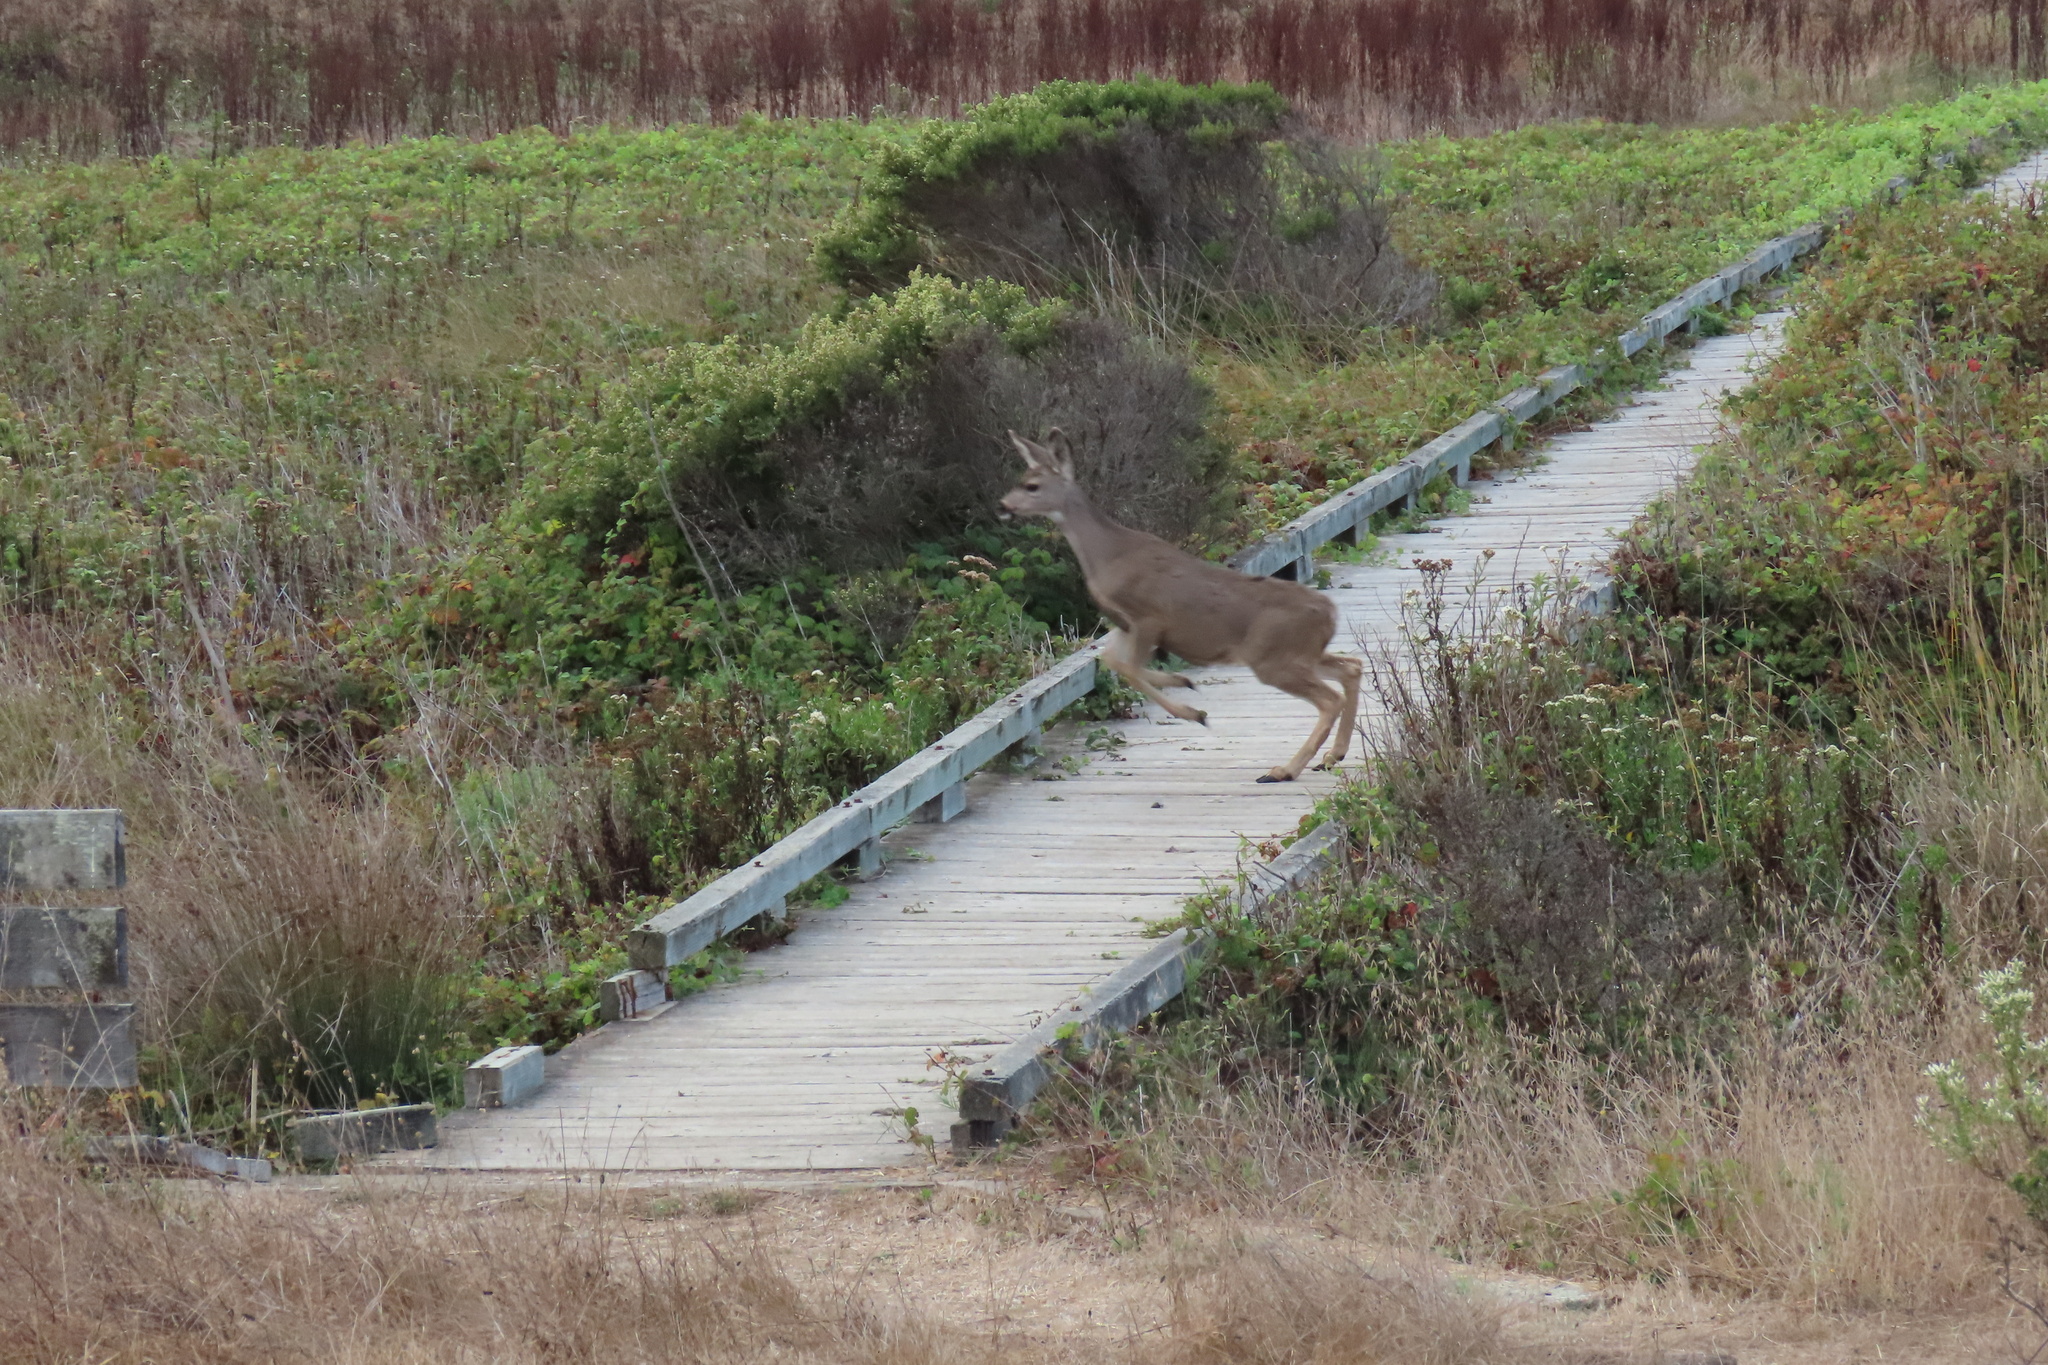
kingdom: Animalia
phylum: Chordata
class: Mammalia
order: Artiodactyla
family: Cervidae
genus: Odocoileus
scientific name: Odocoileus hemionus
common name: Mule deer
